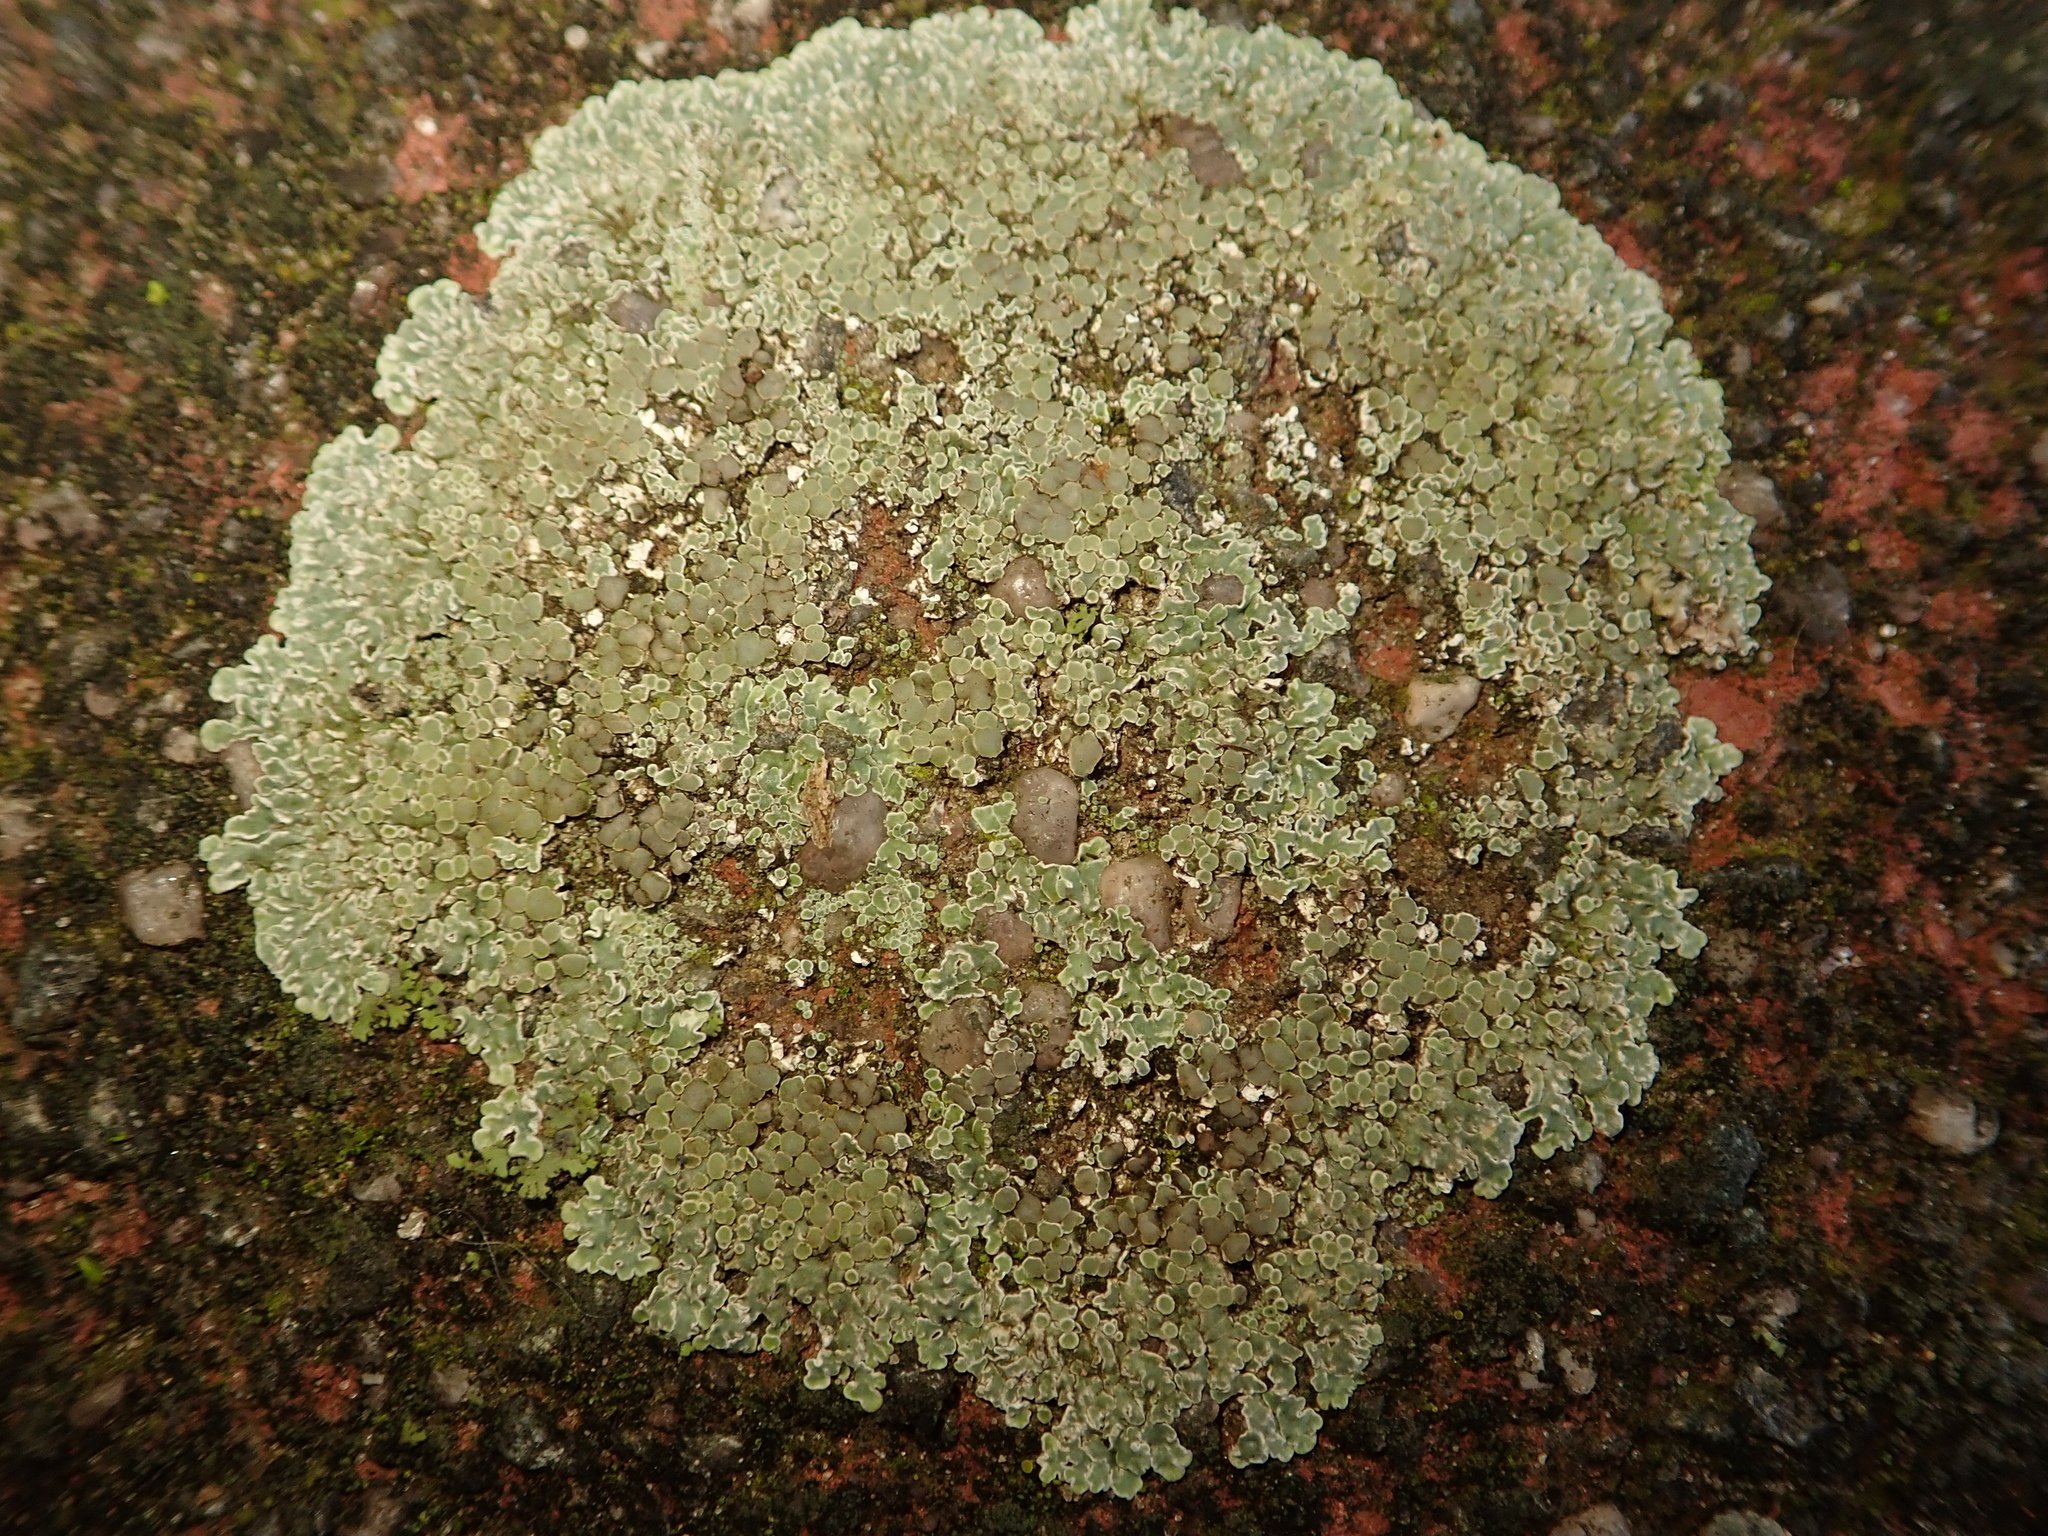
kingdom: Fungi
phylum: Ascomycota
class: Lecanoromycetes
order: Lecanorales
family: Lecanoraceae
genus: Protoparmeliopsis
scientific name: Protoparmeliopsis muralis
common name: Stonewall rim lichen
